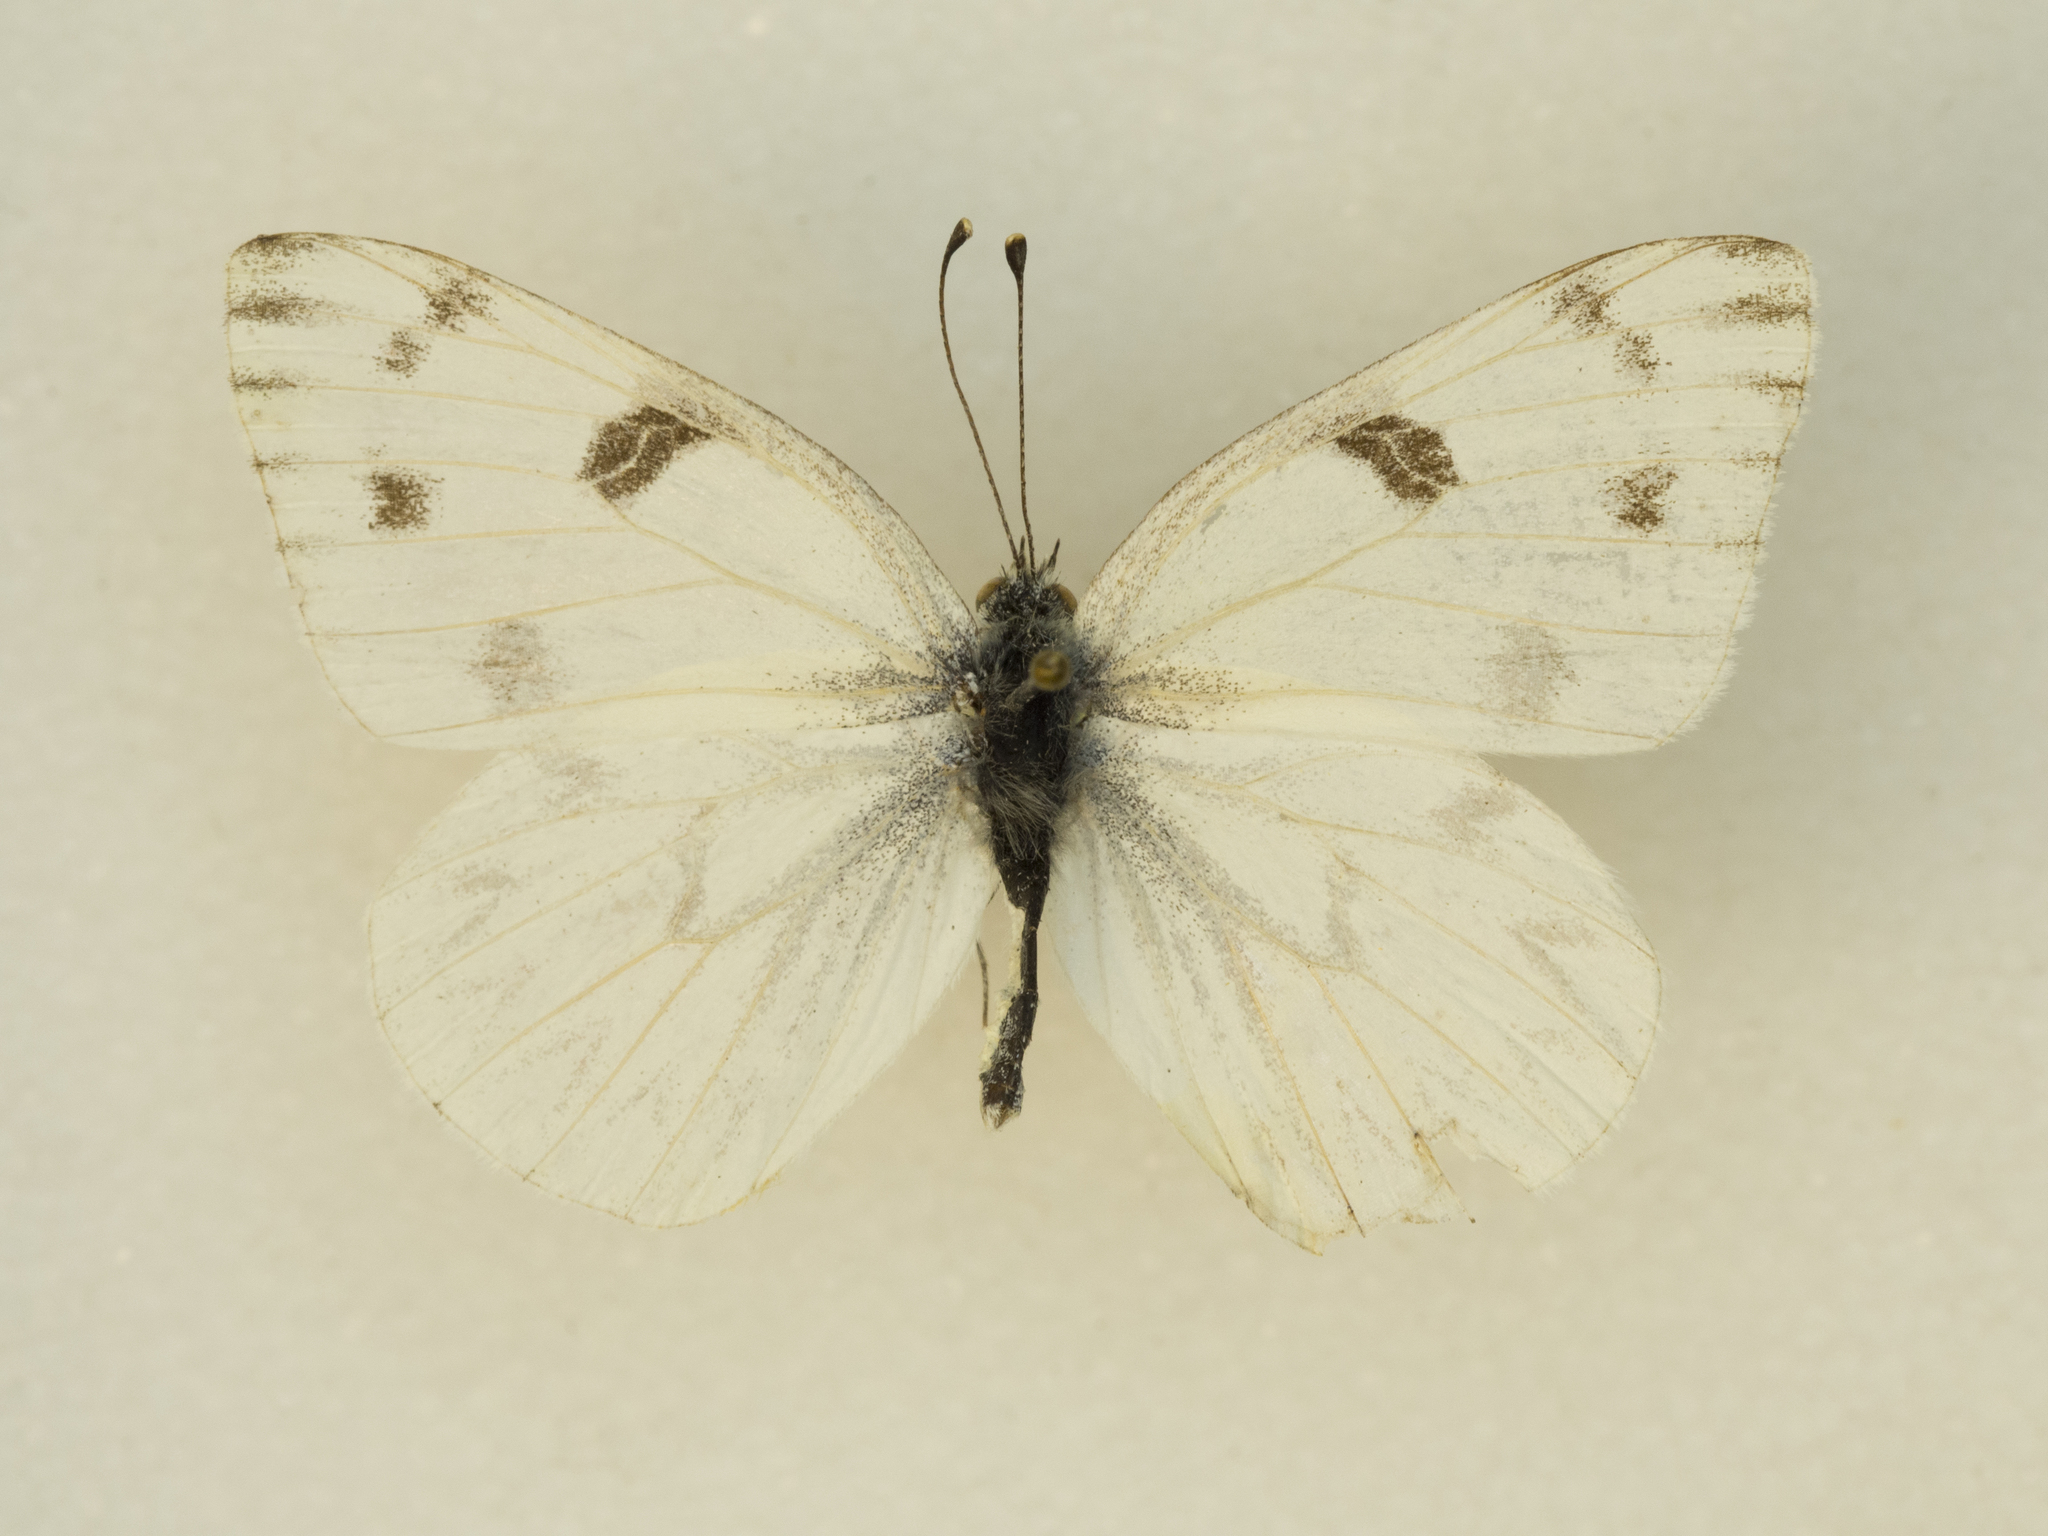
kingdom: Animalia
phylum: Arthropoda
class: Insecta
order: Lepidoptera
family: Pieridae
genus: Pontia
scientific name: Pontia protodice
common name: Checkered white
